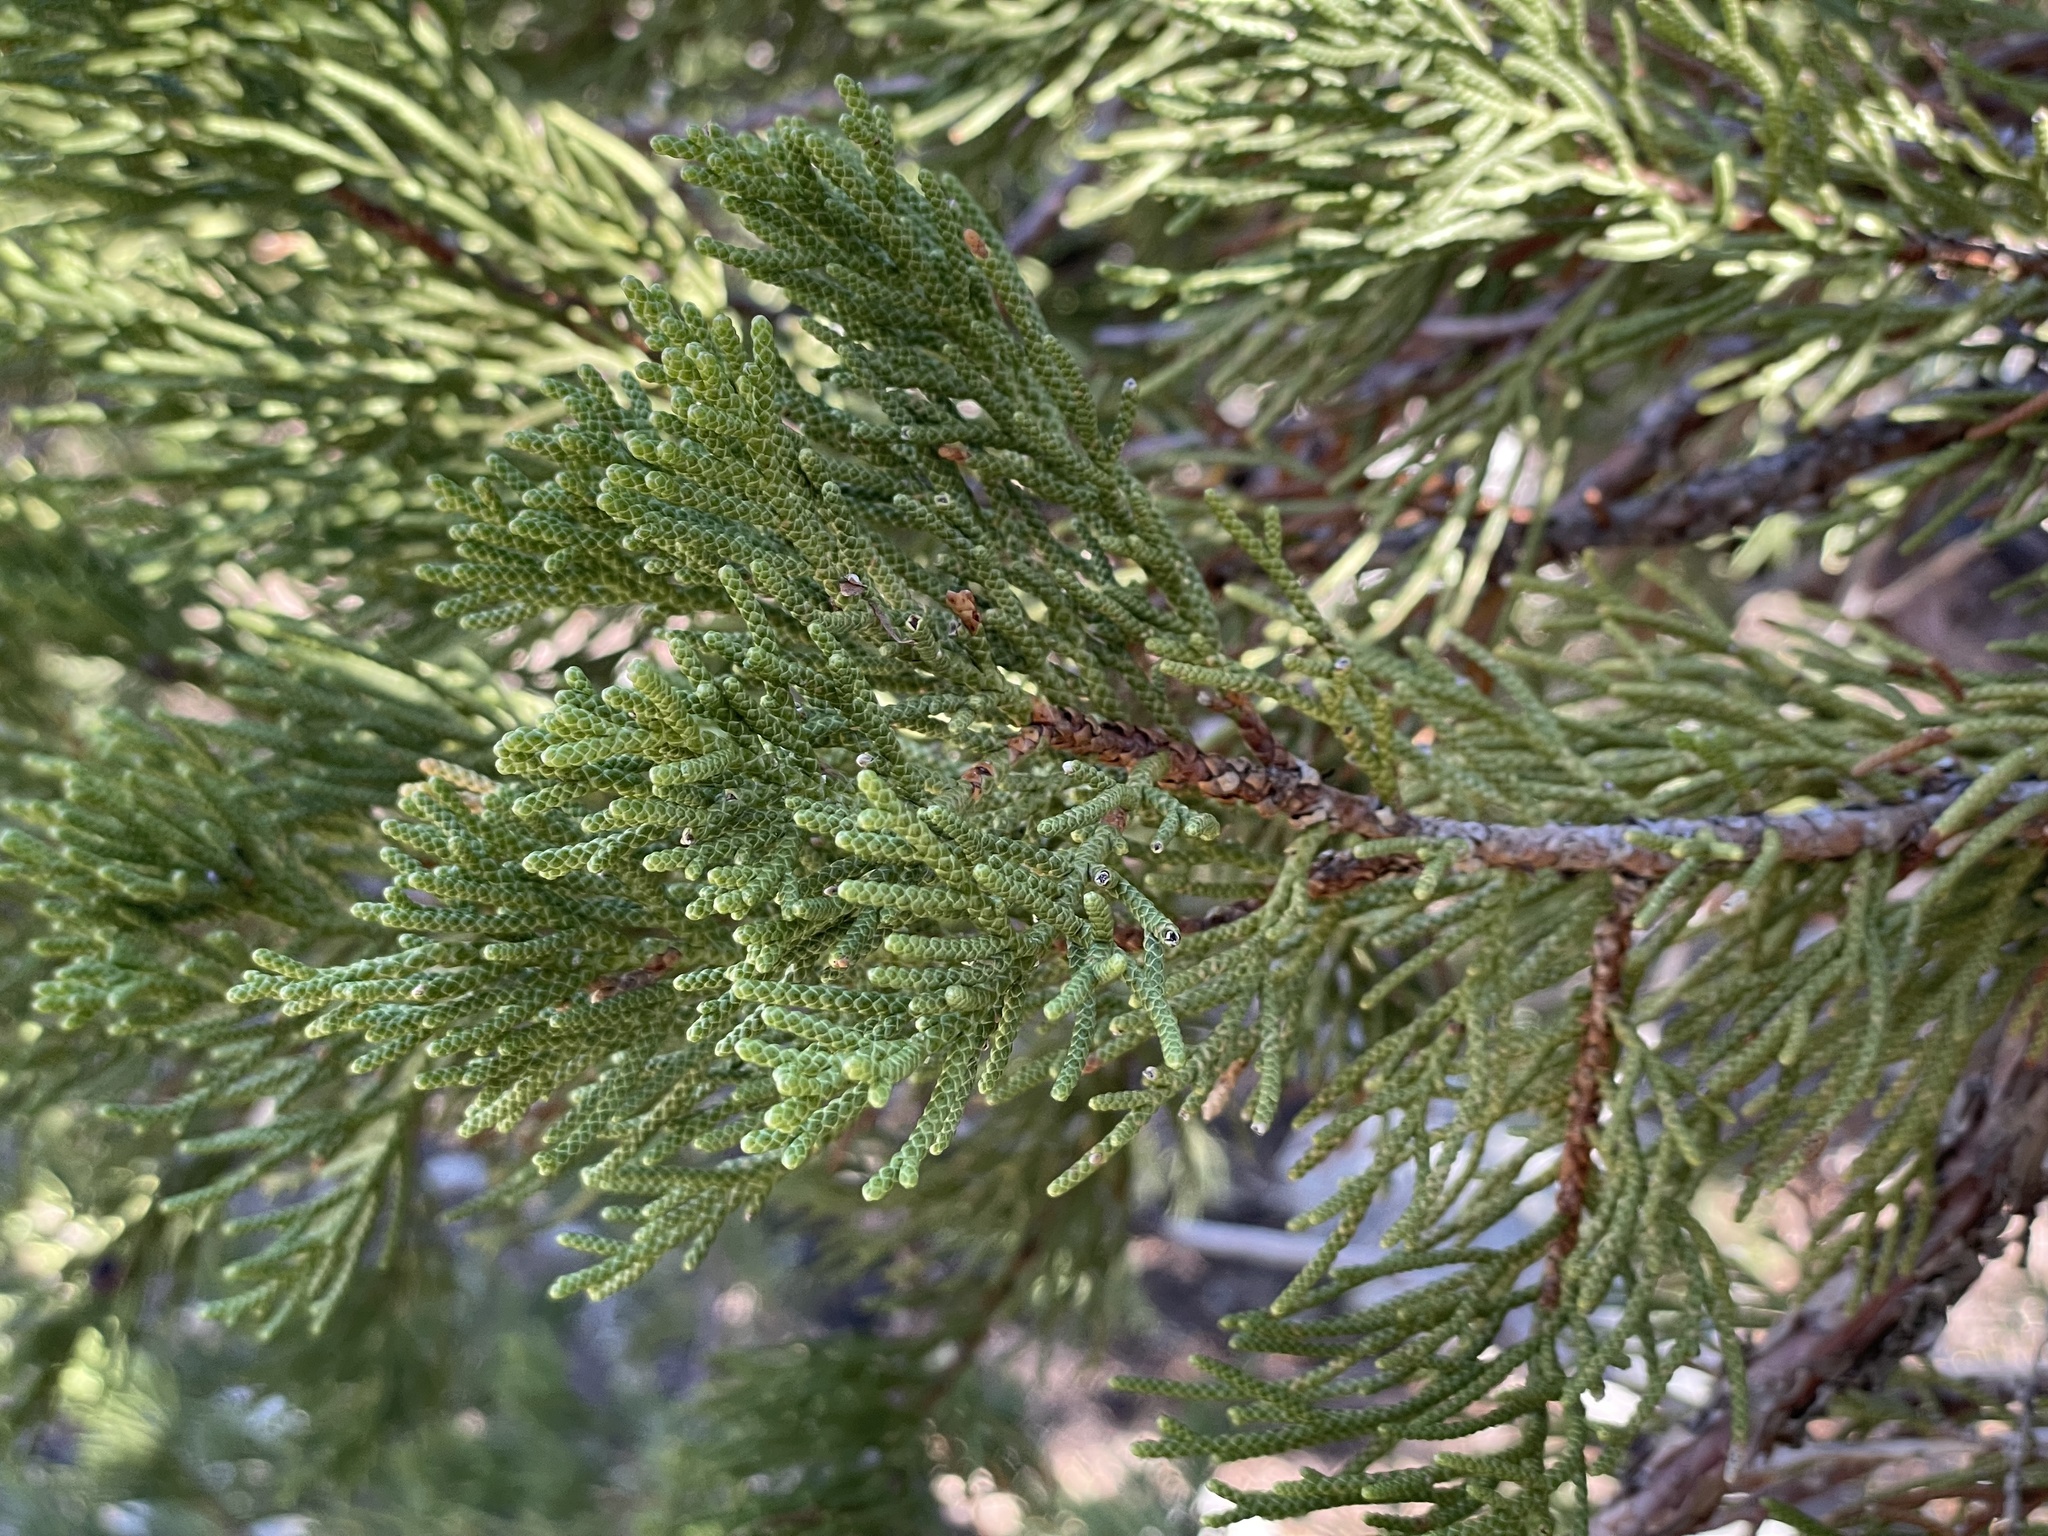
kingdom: Plantae
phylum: Tracheophyta
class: Pinopsida
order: Pinales
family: Cupressaceae
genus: Juniperus
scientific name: Juniperus occidentalis
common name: Western juniper
